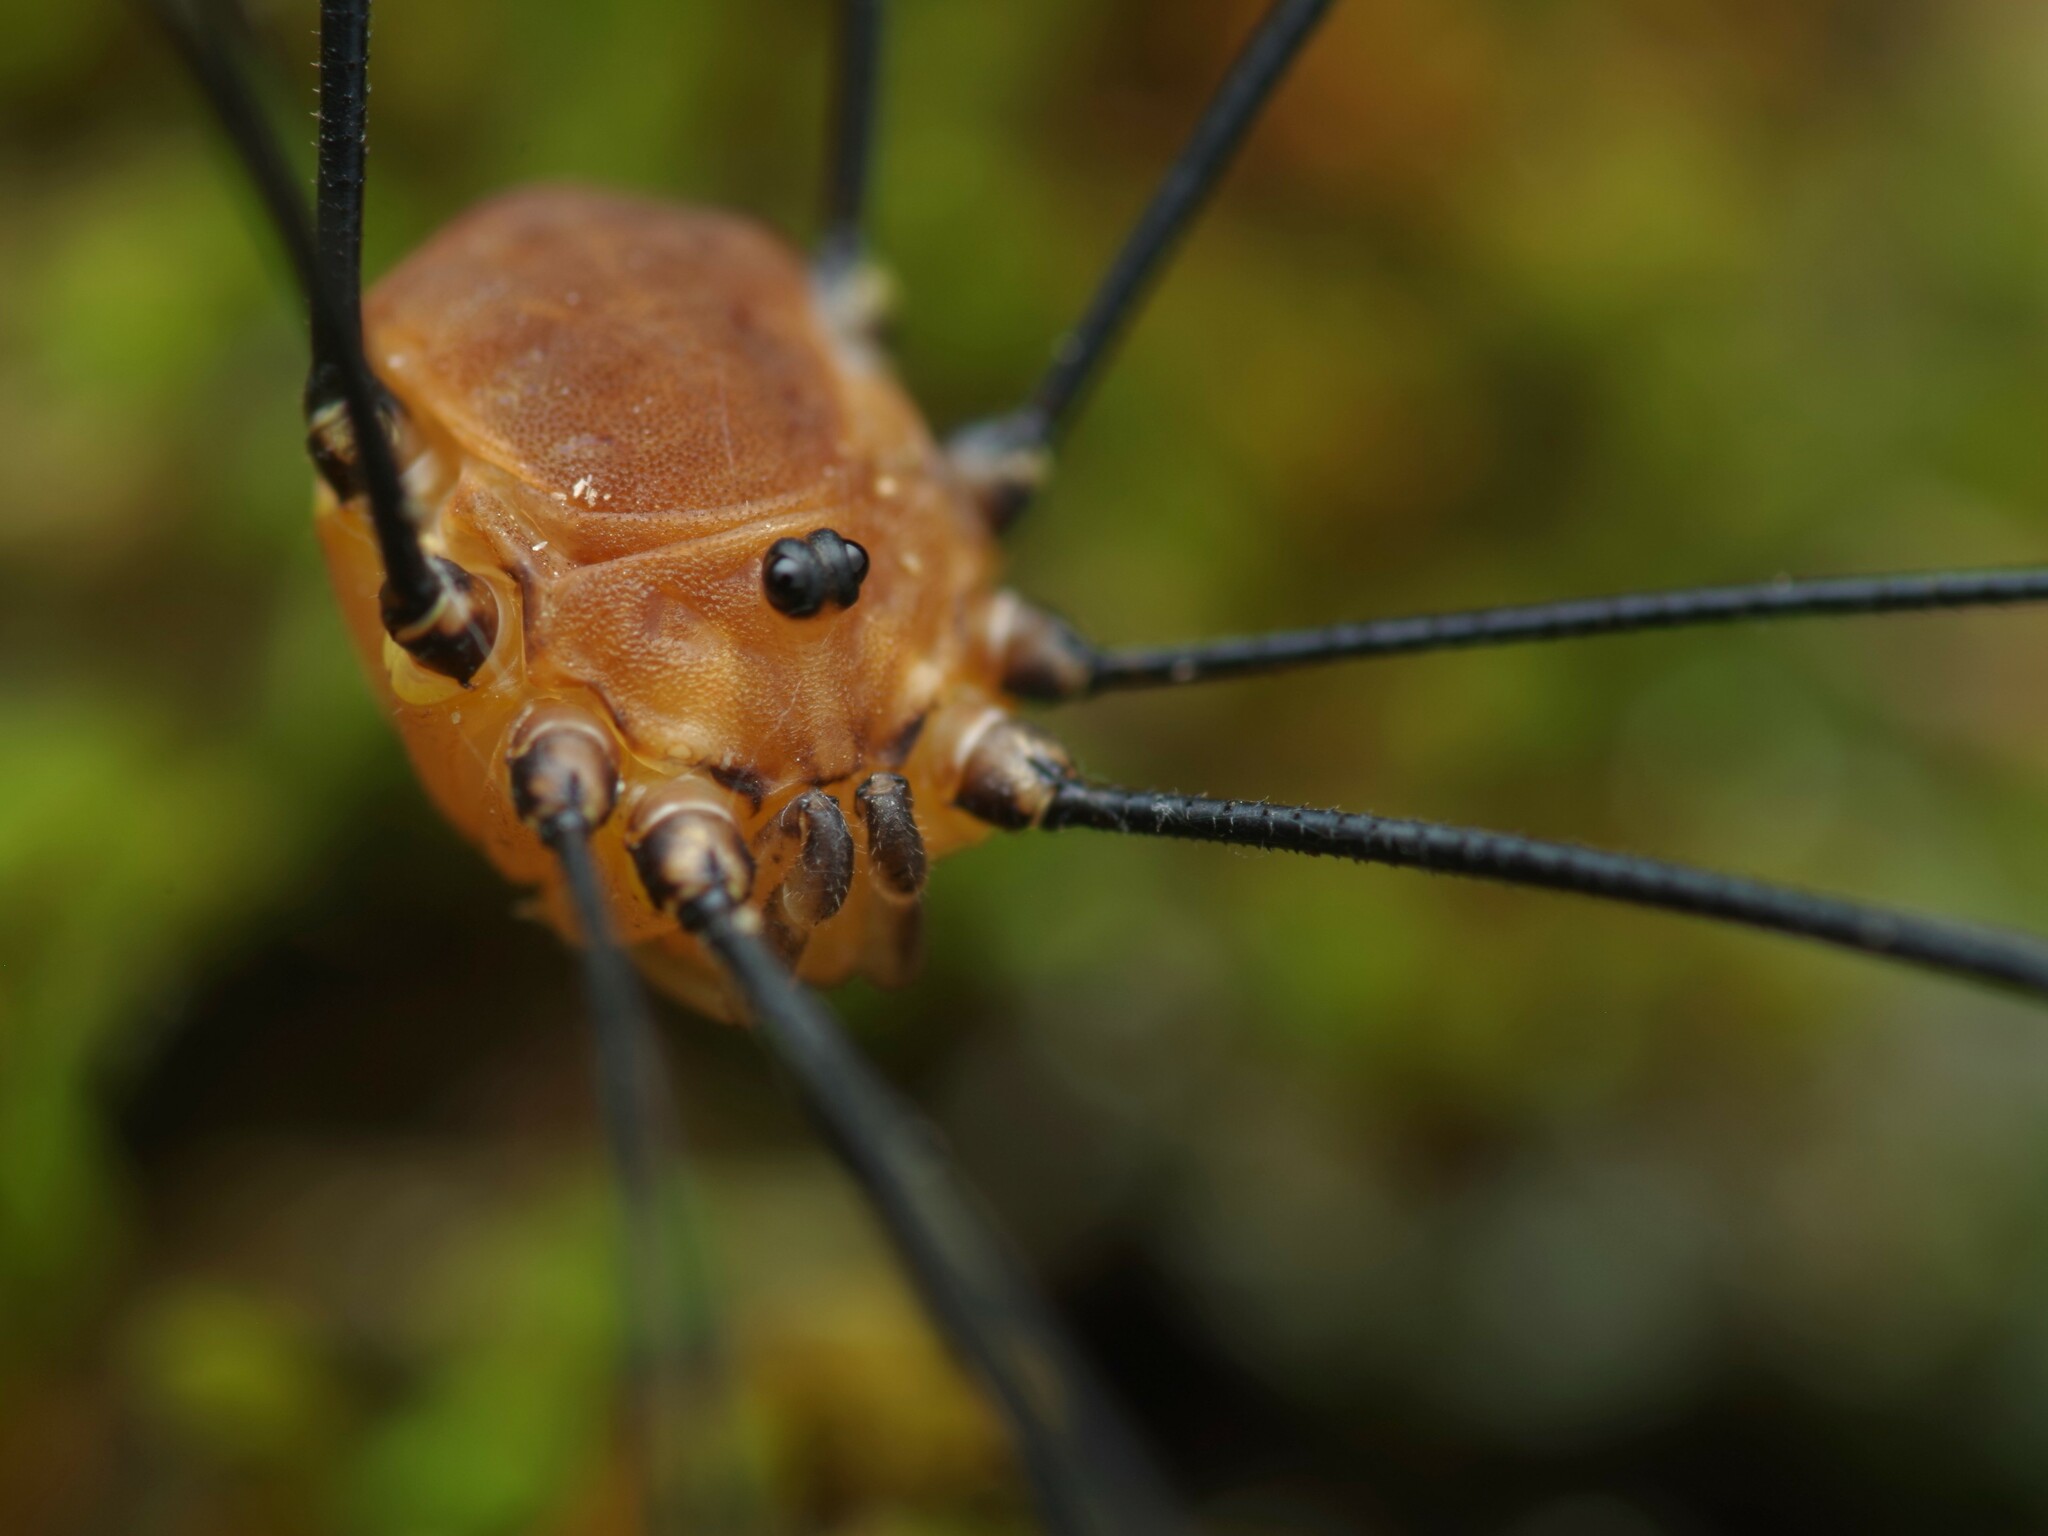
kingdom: Animalia
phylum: Arthropoda
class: Arachnida
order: Opiliones
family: Sclerosomatidae
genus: Leiobunum
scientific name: Leiobunum rotundum
